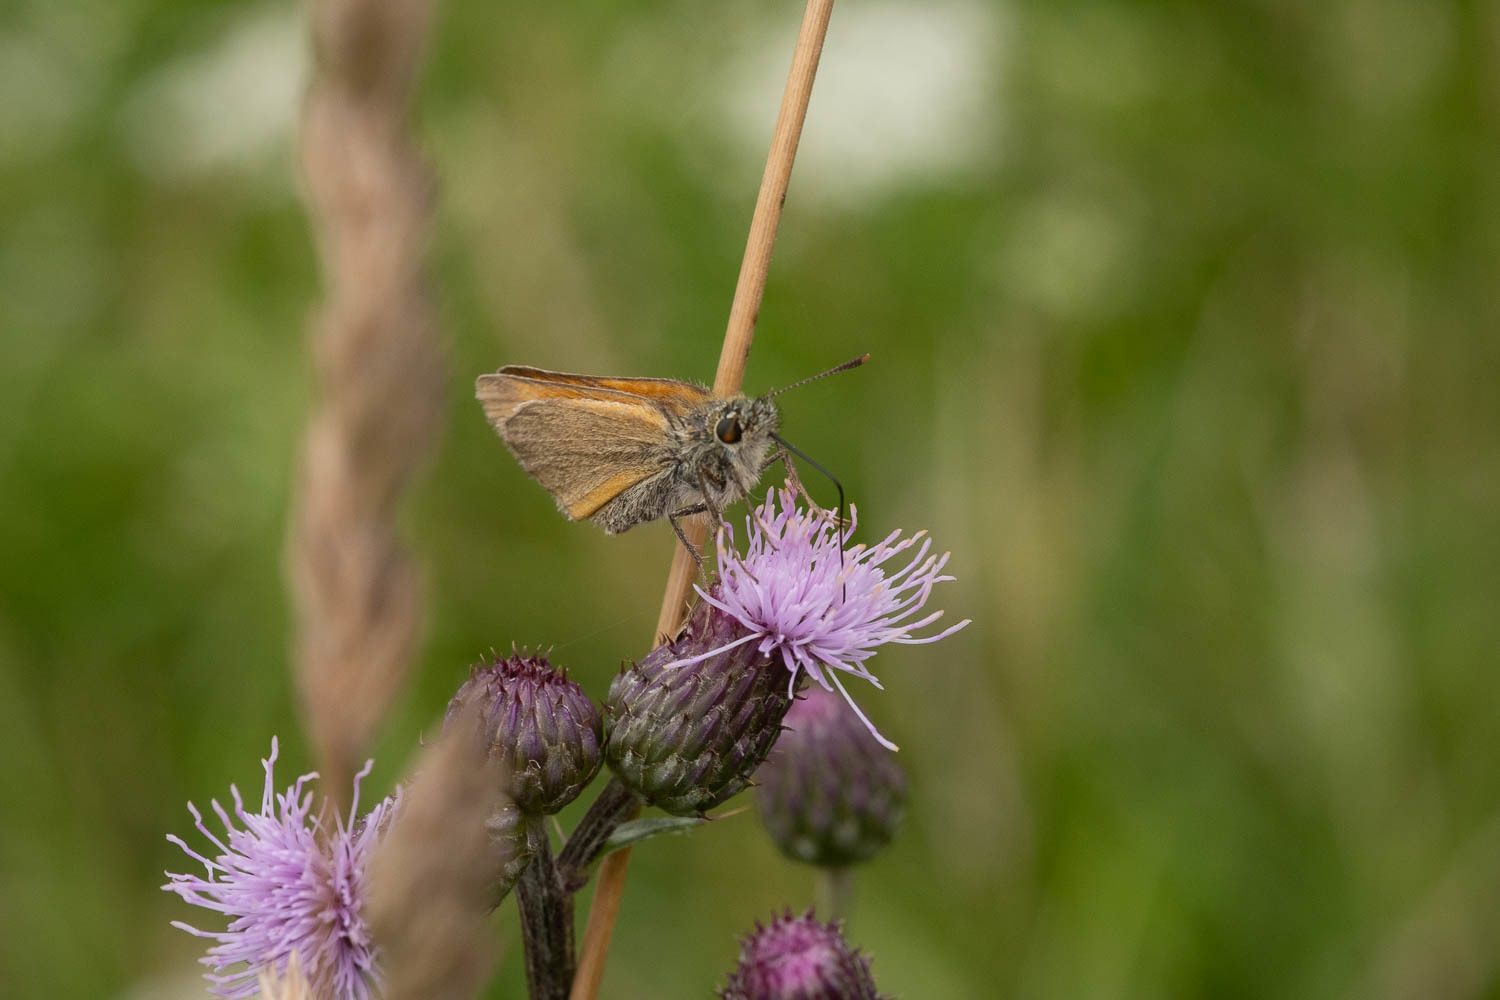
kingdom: Animalia
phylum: Arthropoda
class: Insecta
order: Lepidoptera
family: Hesperiidae
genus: Thymelicus
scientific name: Thymelicus sylvestris
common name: Small skipper
